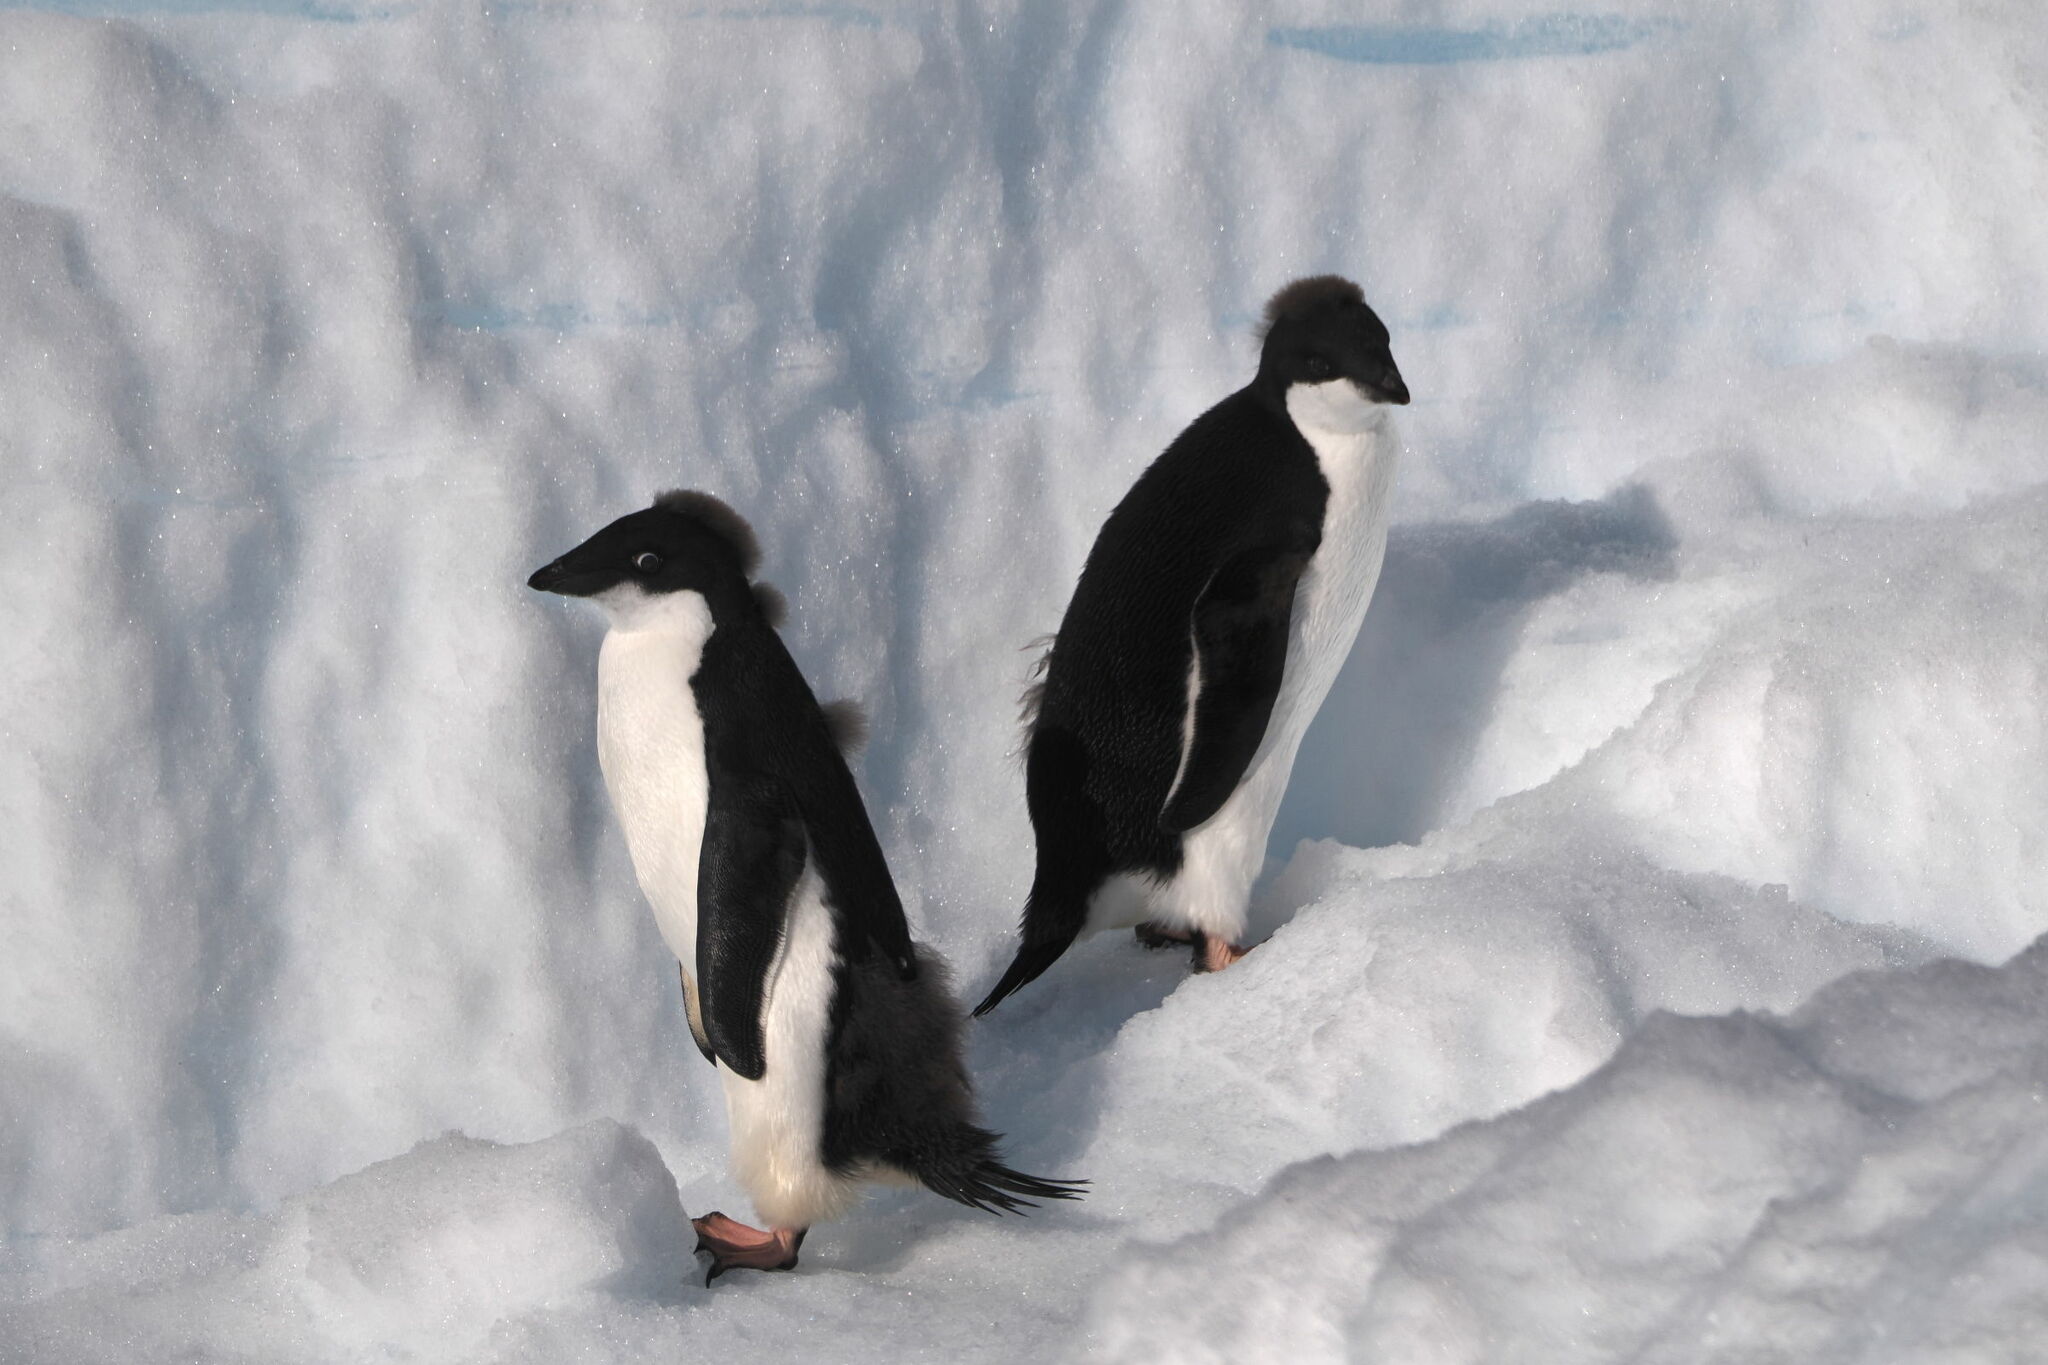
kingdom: Animalia
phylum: Chordata
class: Aves
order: Sphenisciformes
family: Spheniscidae
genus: Pygoscelis
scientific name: Pygoscelis adeliae
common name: Adelie penguin
